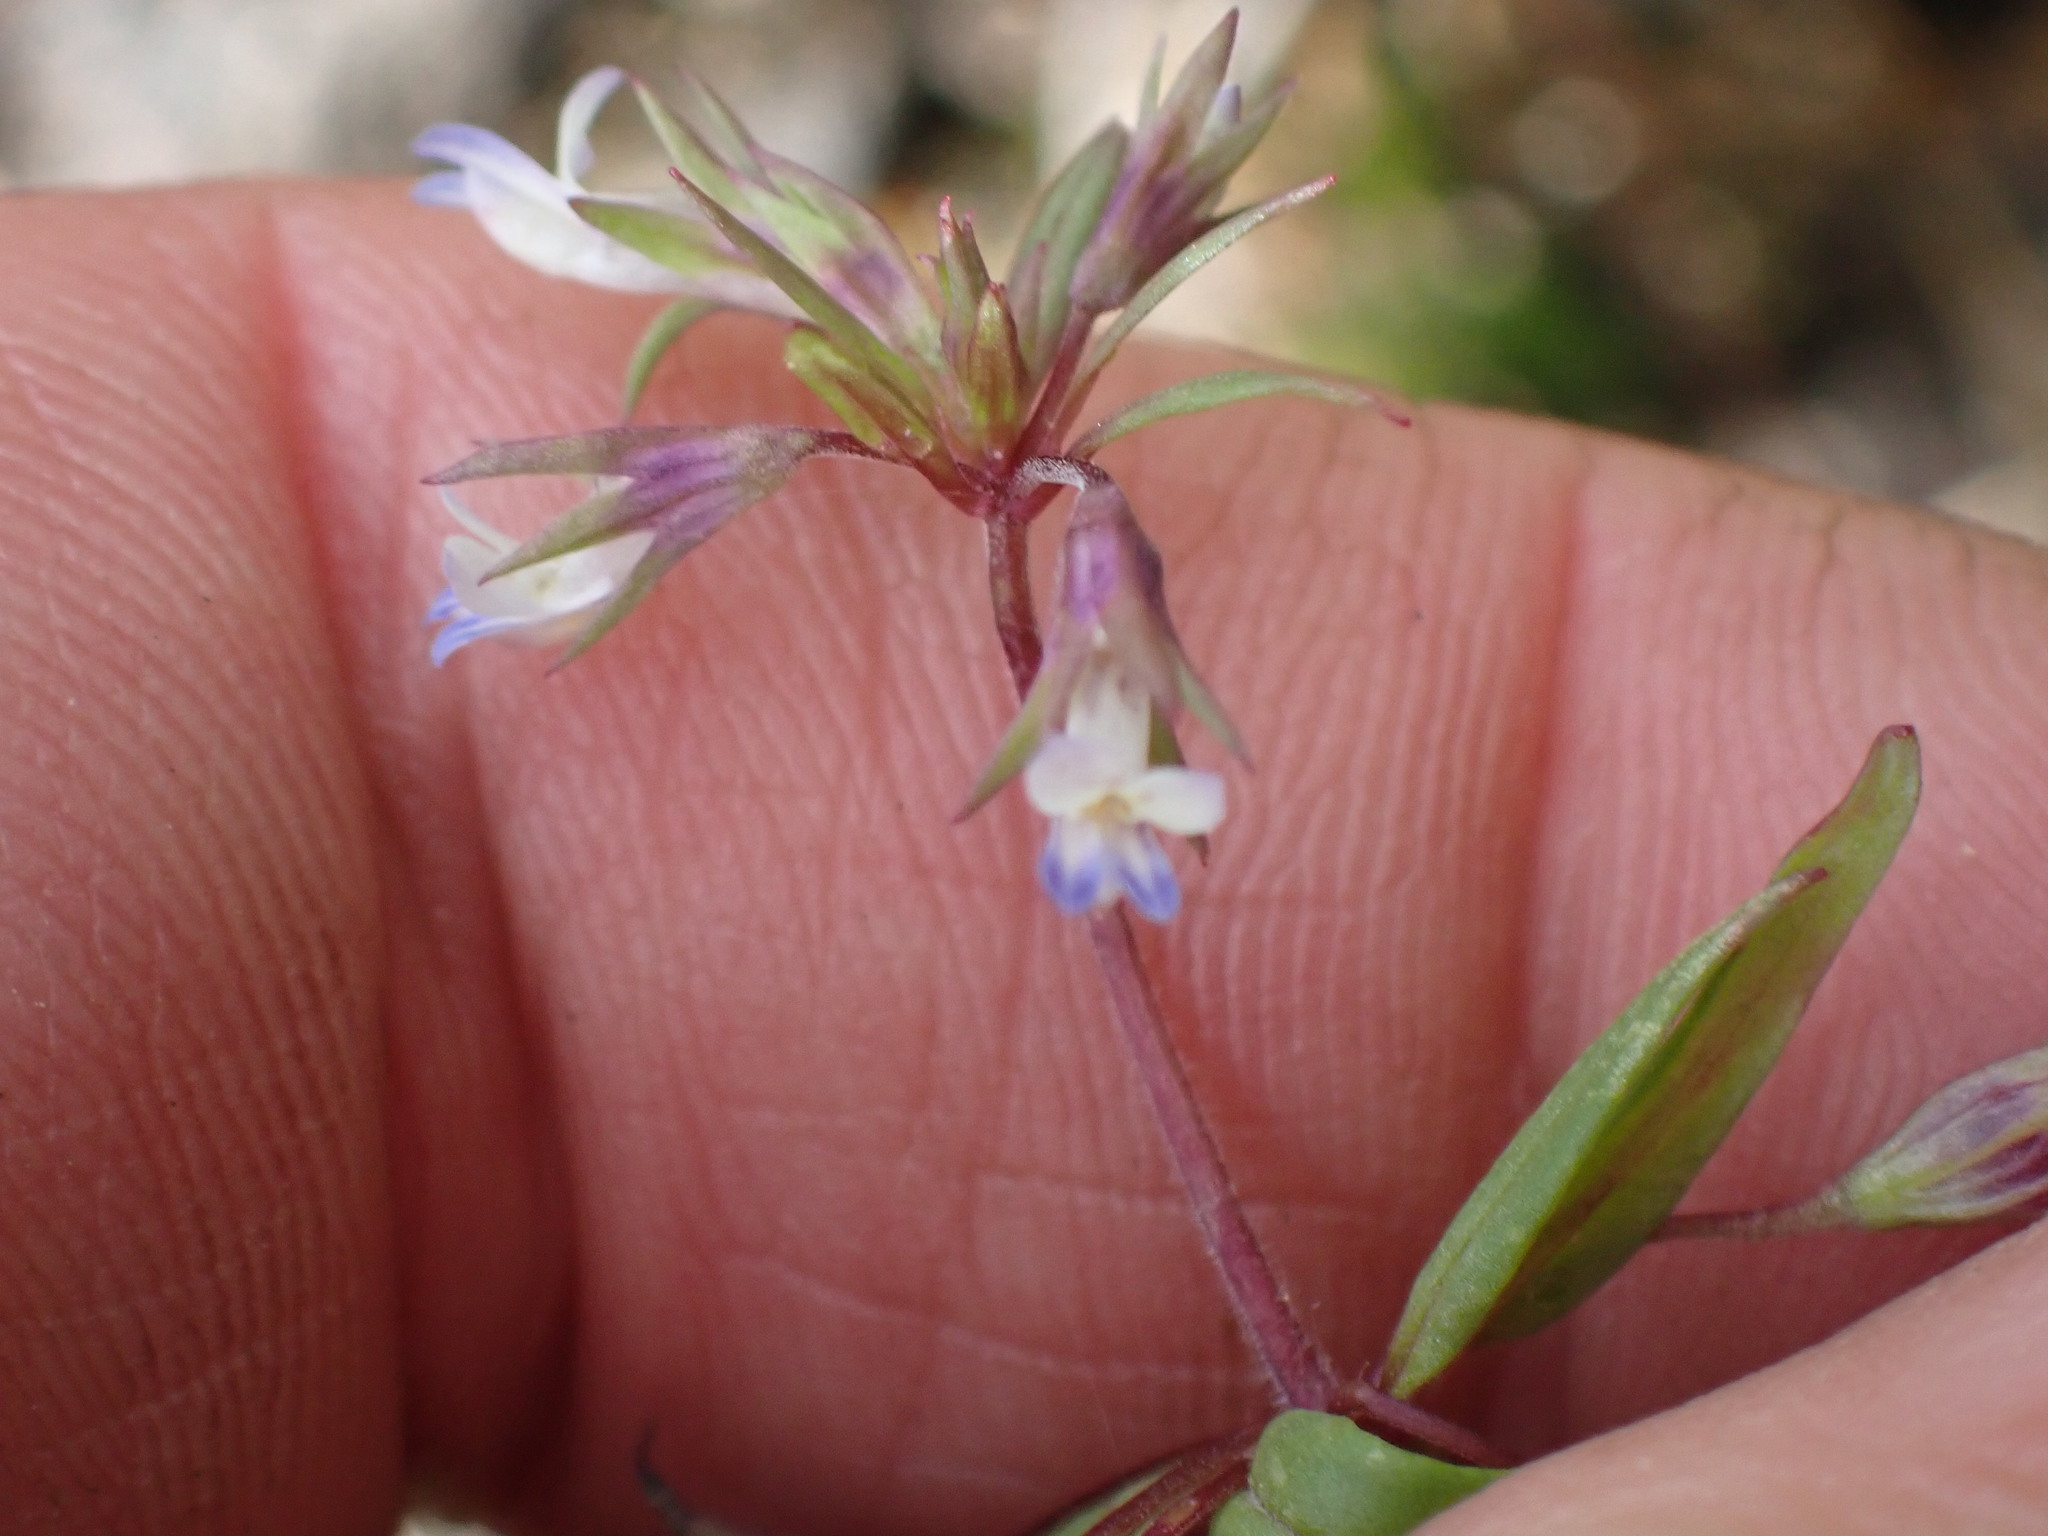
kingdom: Plantae
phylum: Tracheophyta
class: Magnoliopsida
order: Lamiales
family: Plantaginaceae
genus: Collinsia
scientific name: Collinsia parviflora
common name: Blue-lips
